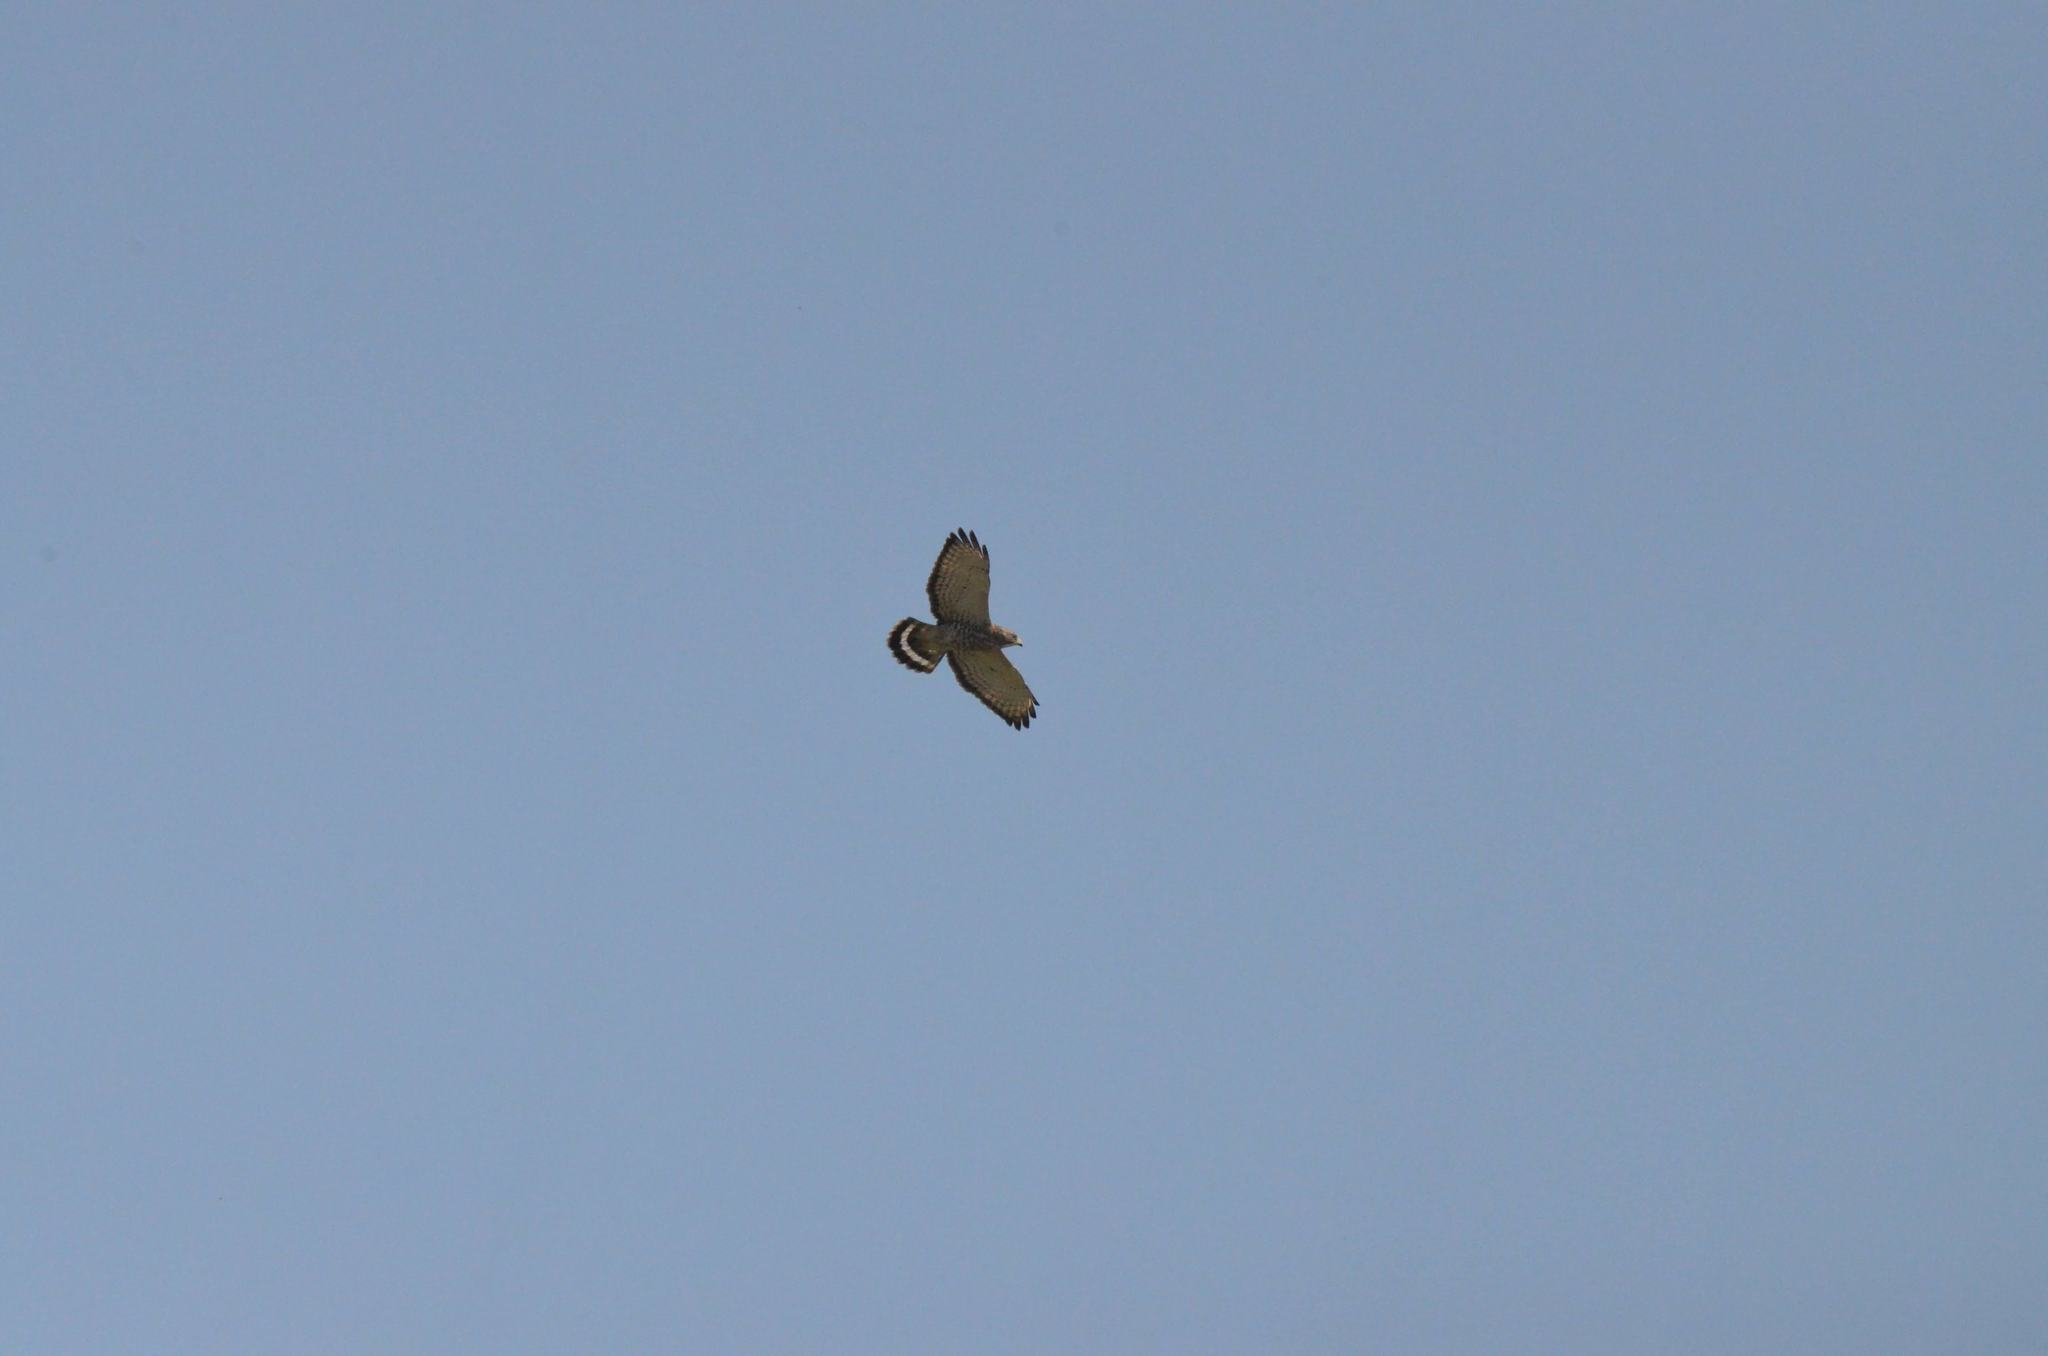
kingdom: Animalia
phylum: Chordata
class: Aves
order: Accipitriformes
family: Accipitridae
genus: Buteo
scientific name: Buteo platypterus
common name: Broad-winged hawk
